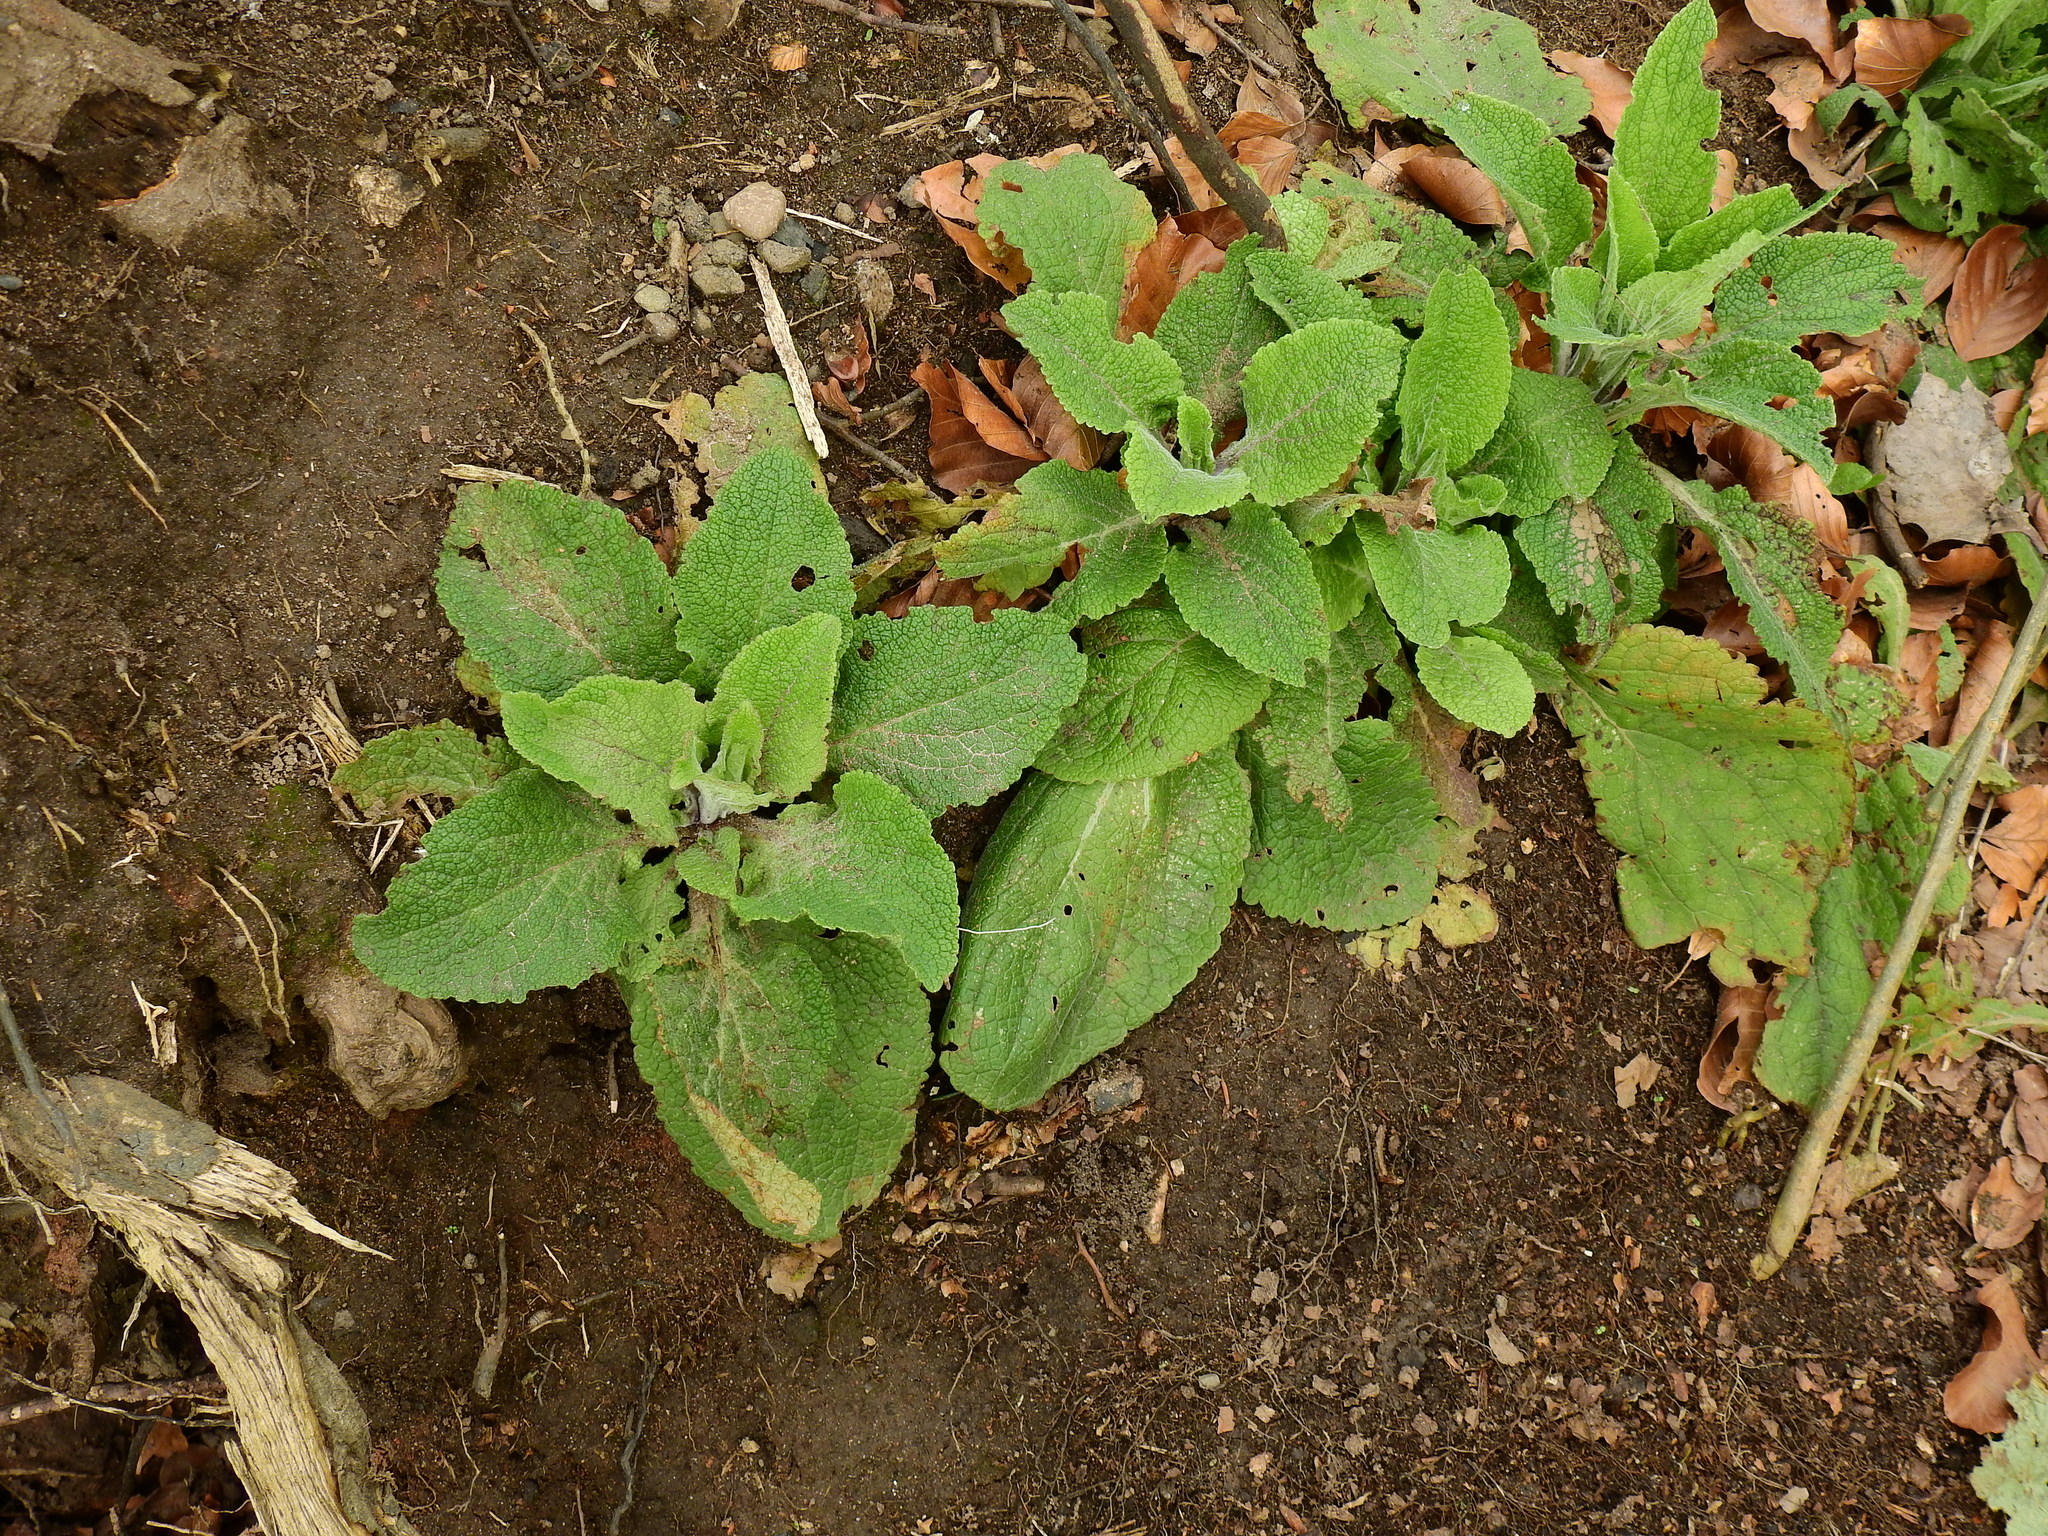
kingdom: Plantae
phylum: Tracheophyta
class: Magnoliopsida
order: Lamiales
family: Plantaginaceae
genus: Digitalis
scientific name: Digitalis purpurea
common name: Foxglove
